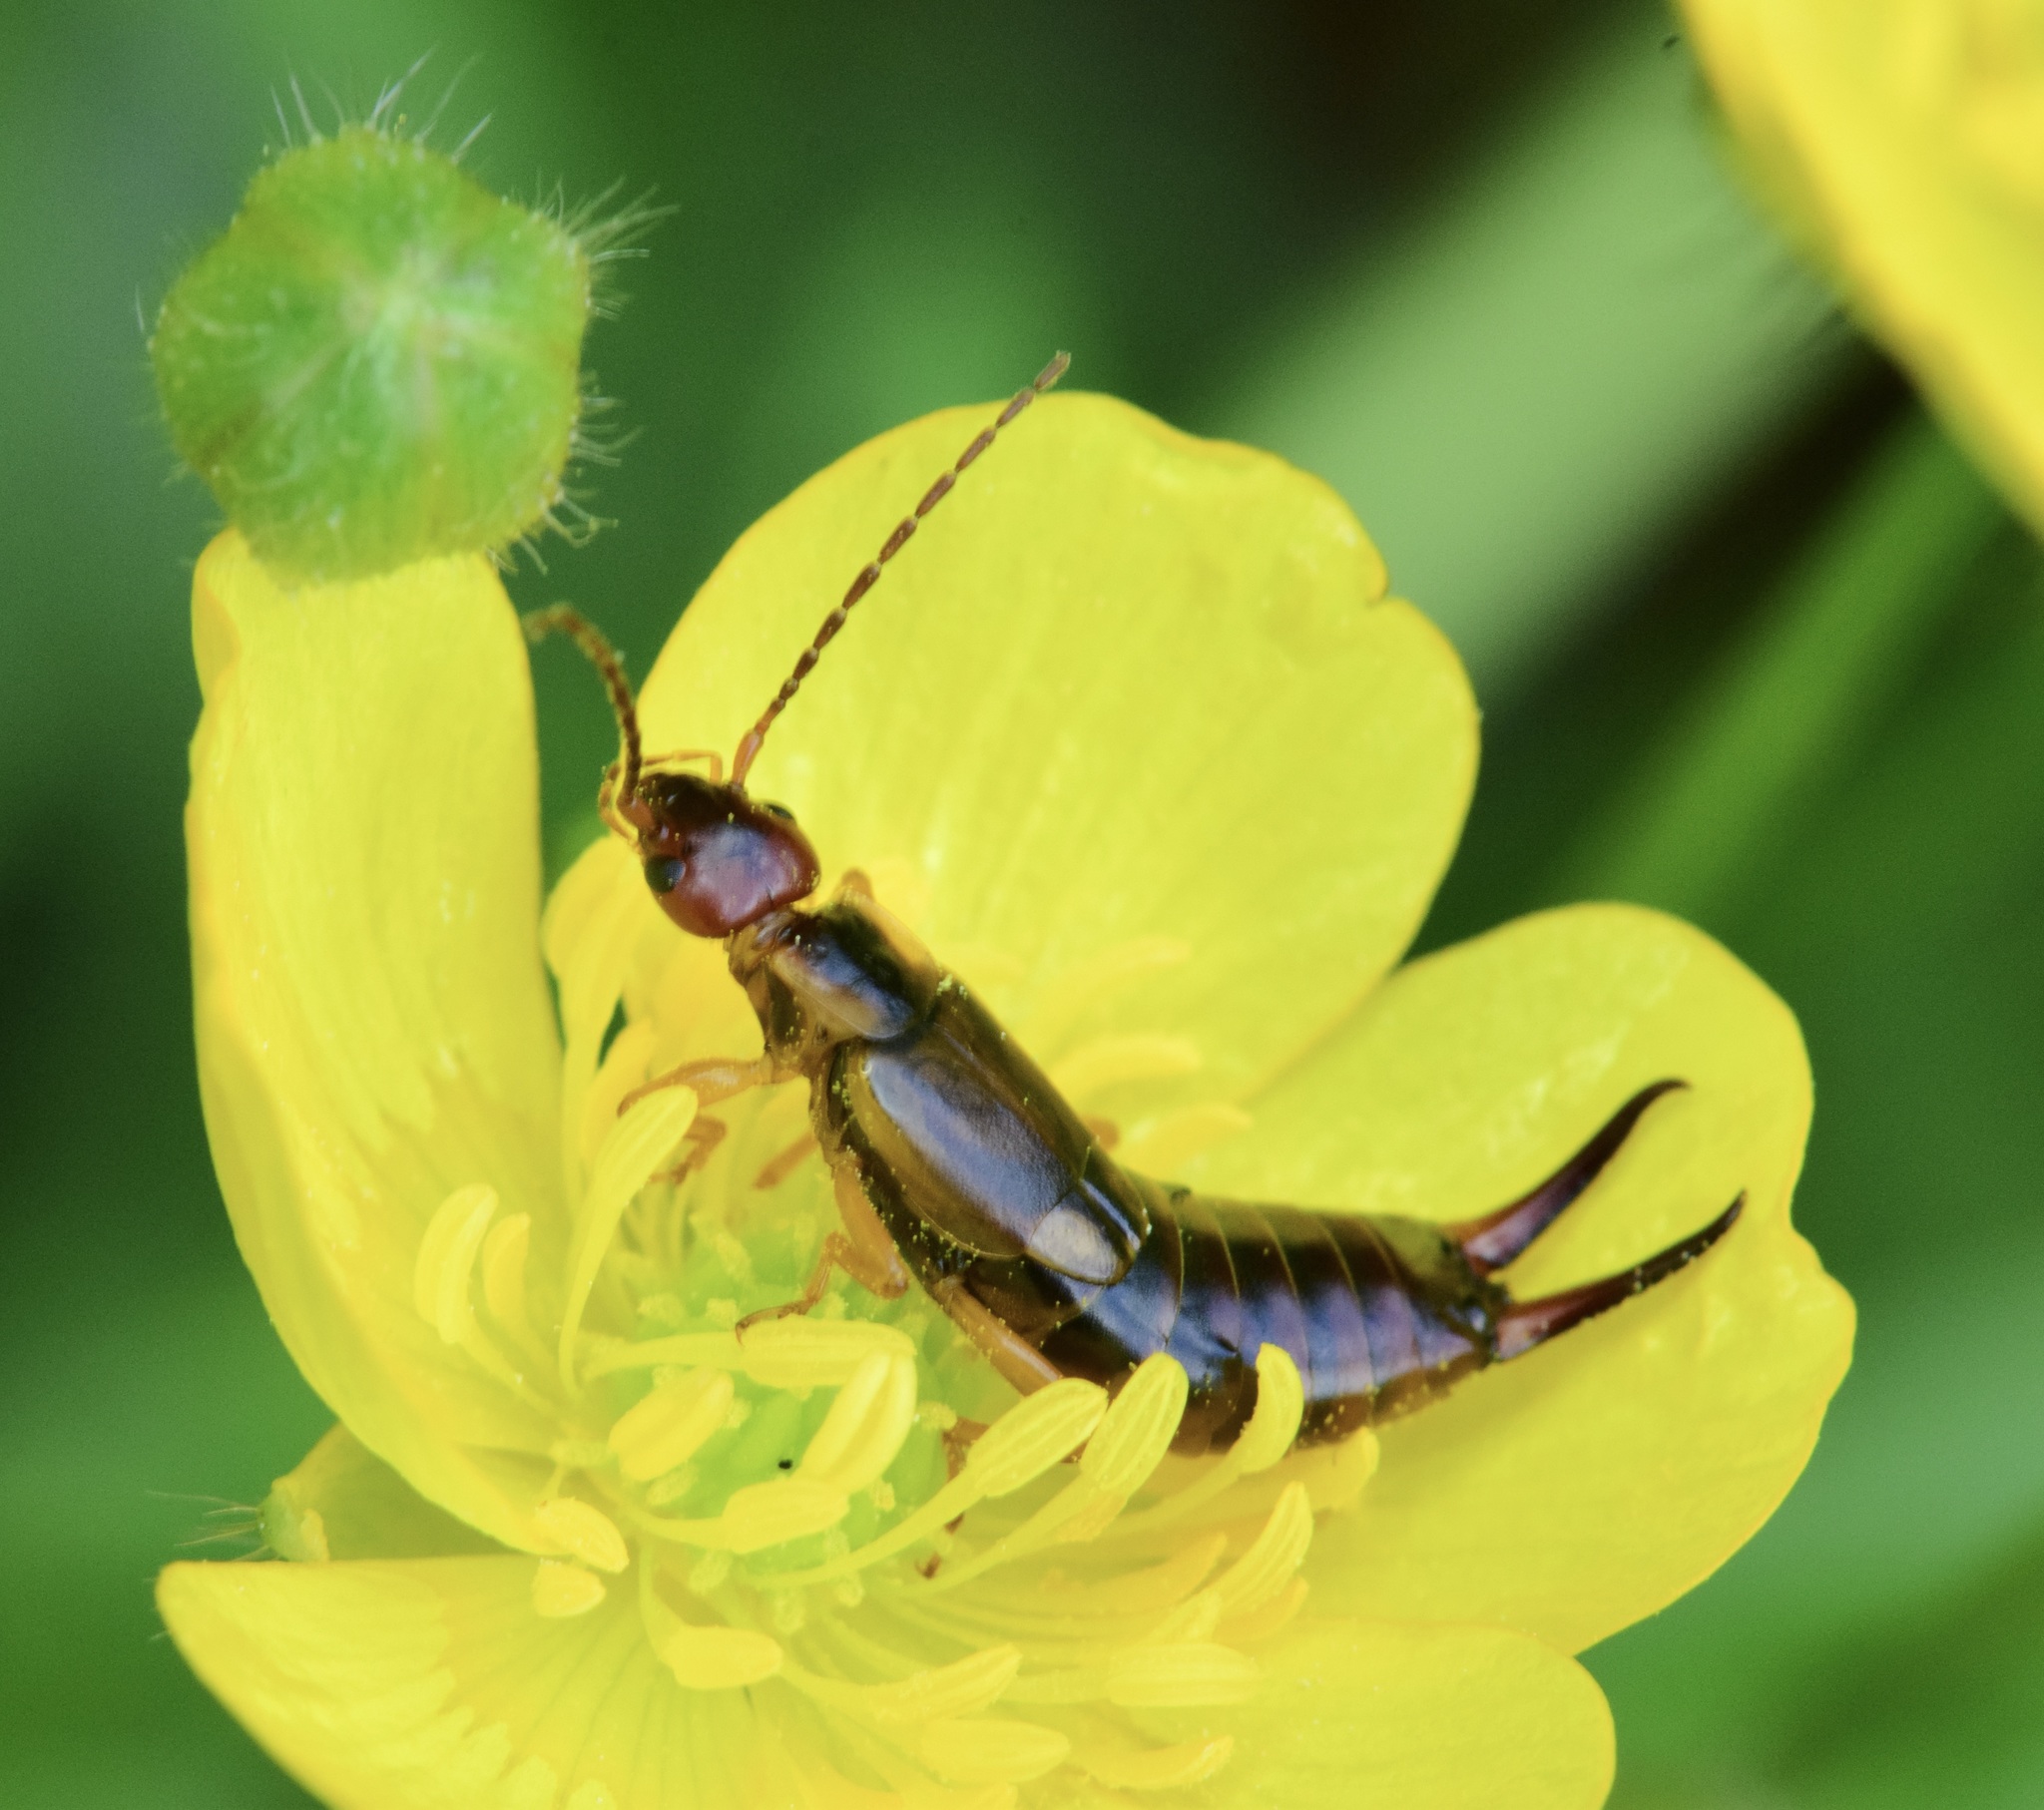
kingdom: Animalia
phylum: Arthropoda
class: Insecta
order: Dermaptera
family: Forficulidae
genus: Forficula
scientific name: Forficula
